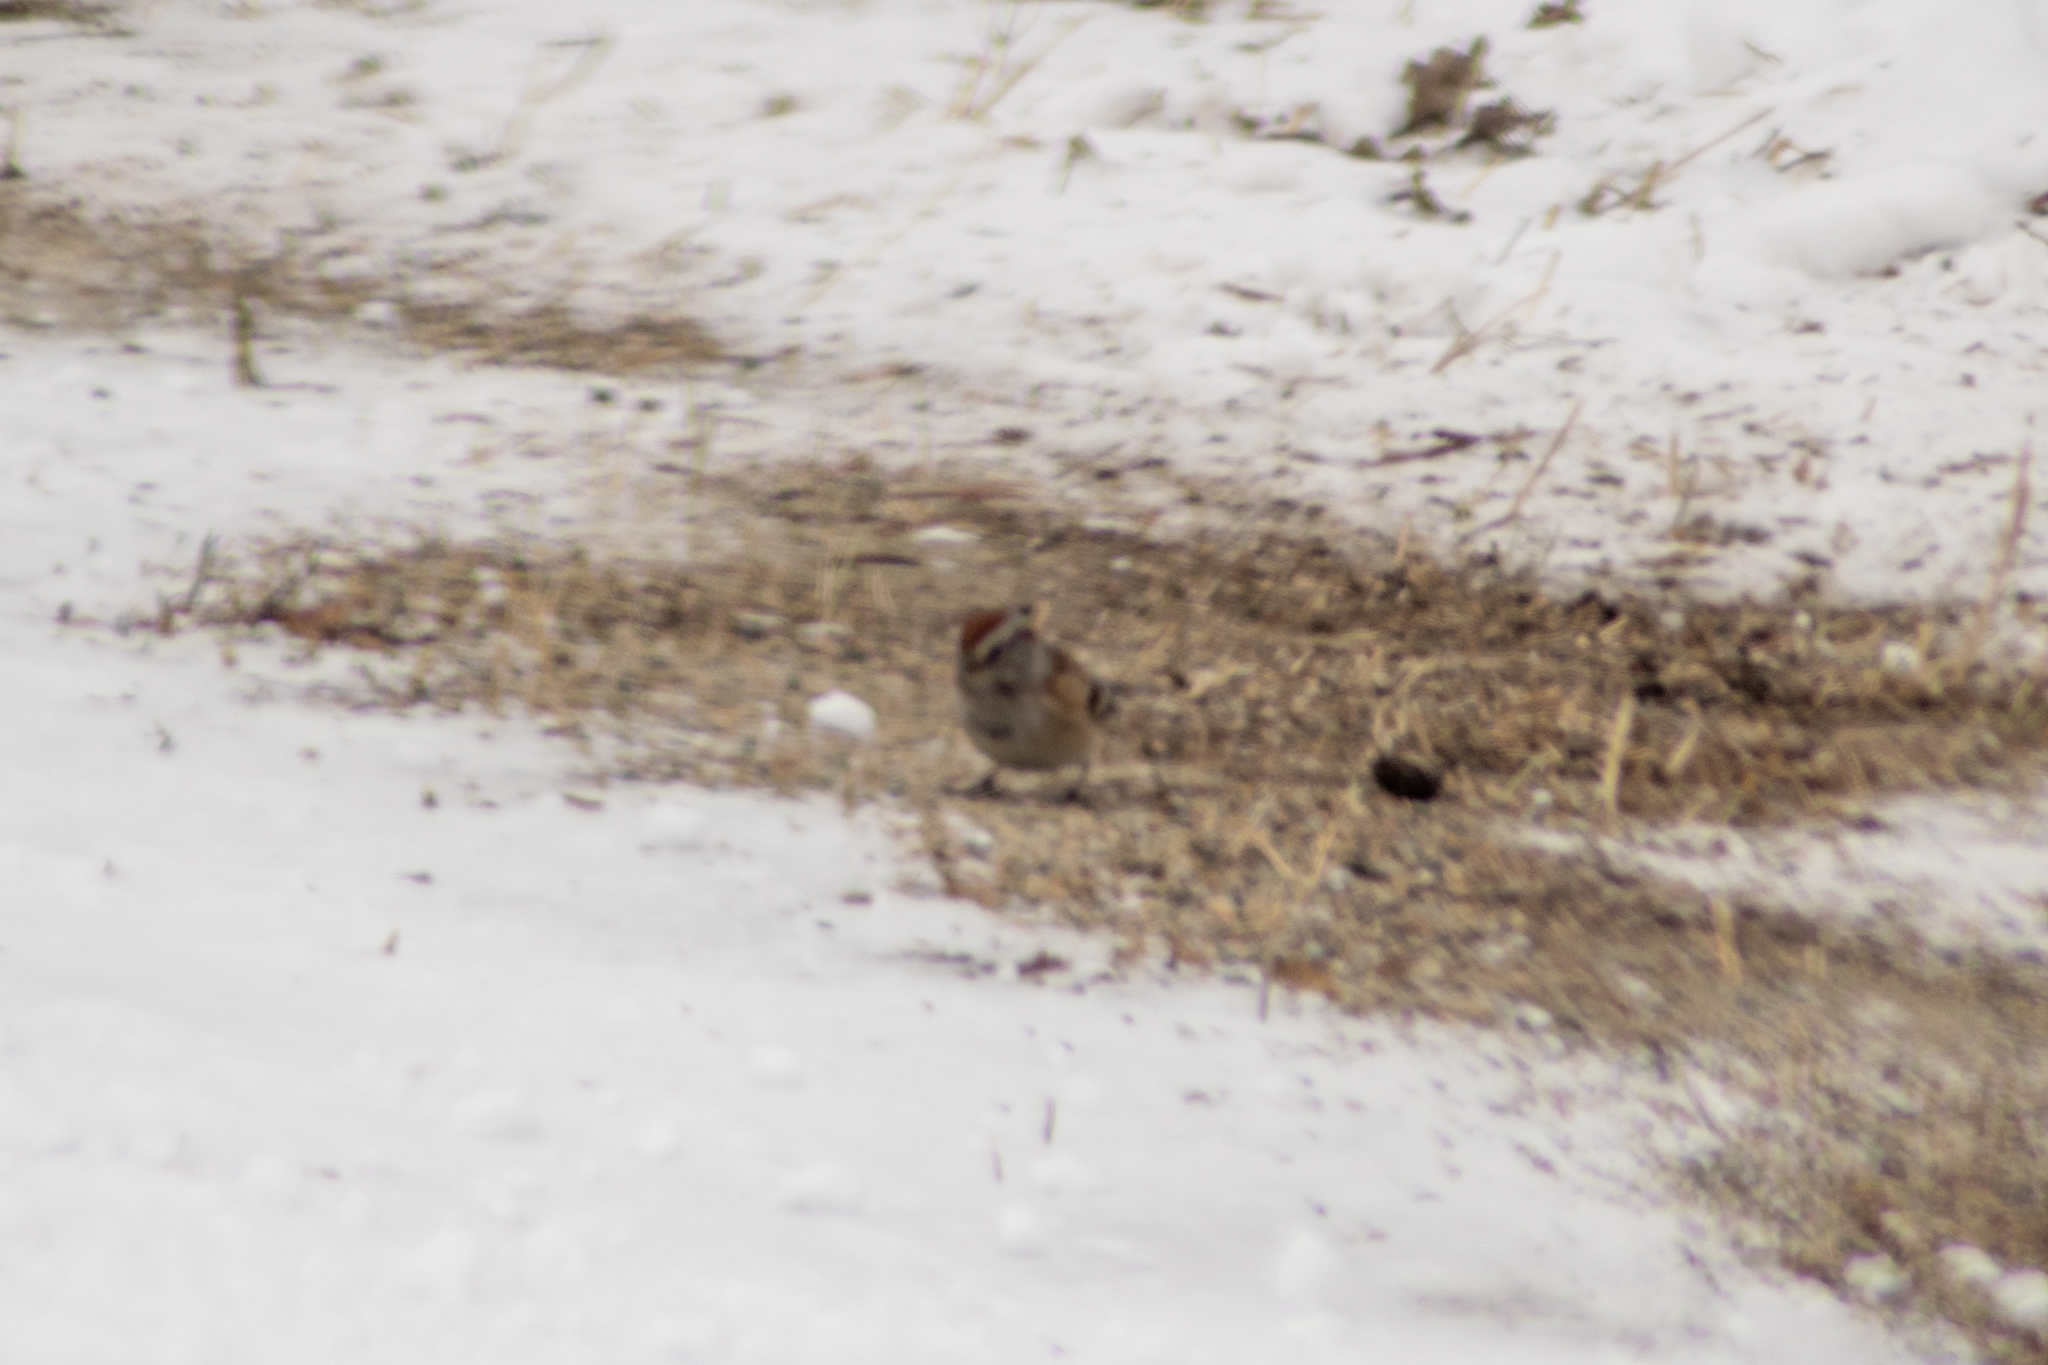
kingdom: Animalia
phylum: Chordata
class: Aves
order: Passeriformes
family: Passerellidae
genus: Spizelloides
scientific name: Spizelloides arborea
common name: American tree sparrow
